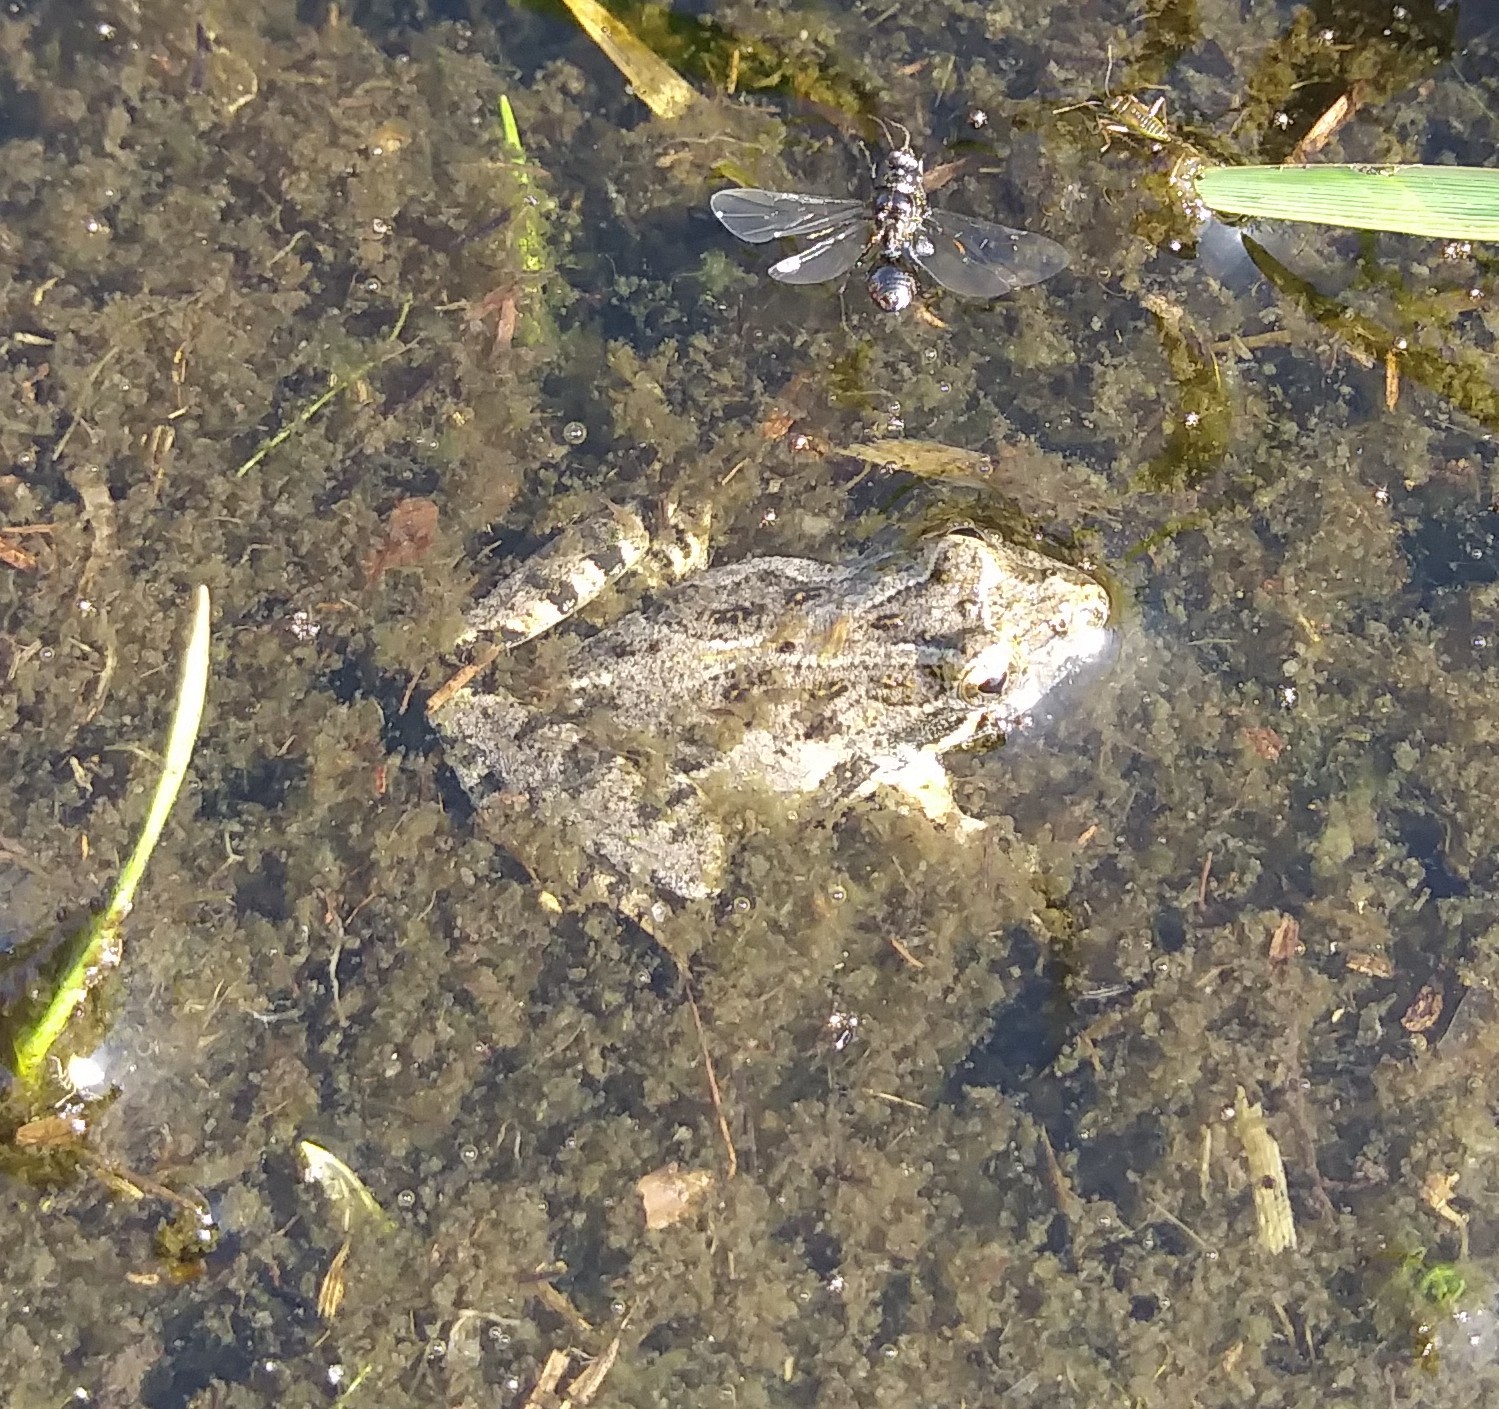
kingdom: Animalia
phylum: Chordata
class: Amphibia
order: Anura
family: Hylidae
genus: Acris
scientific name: Acris gryllus
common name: Southern cricket frog
